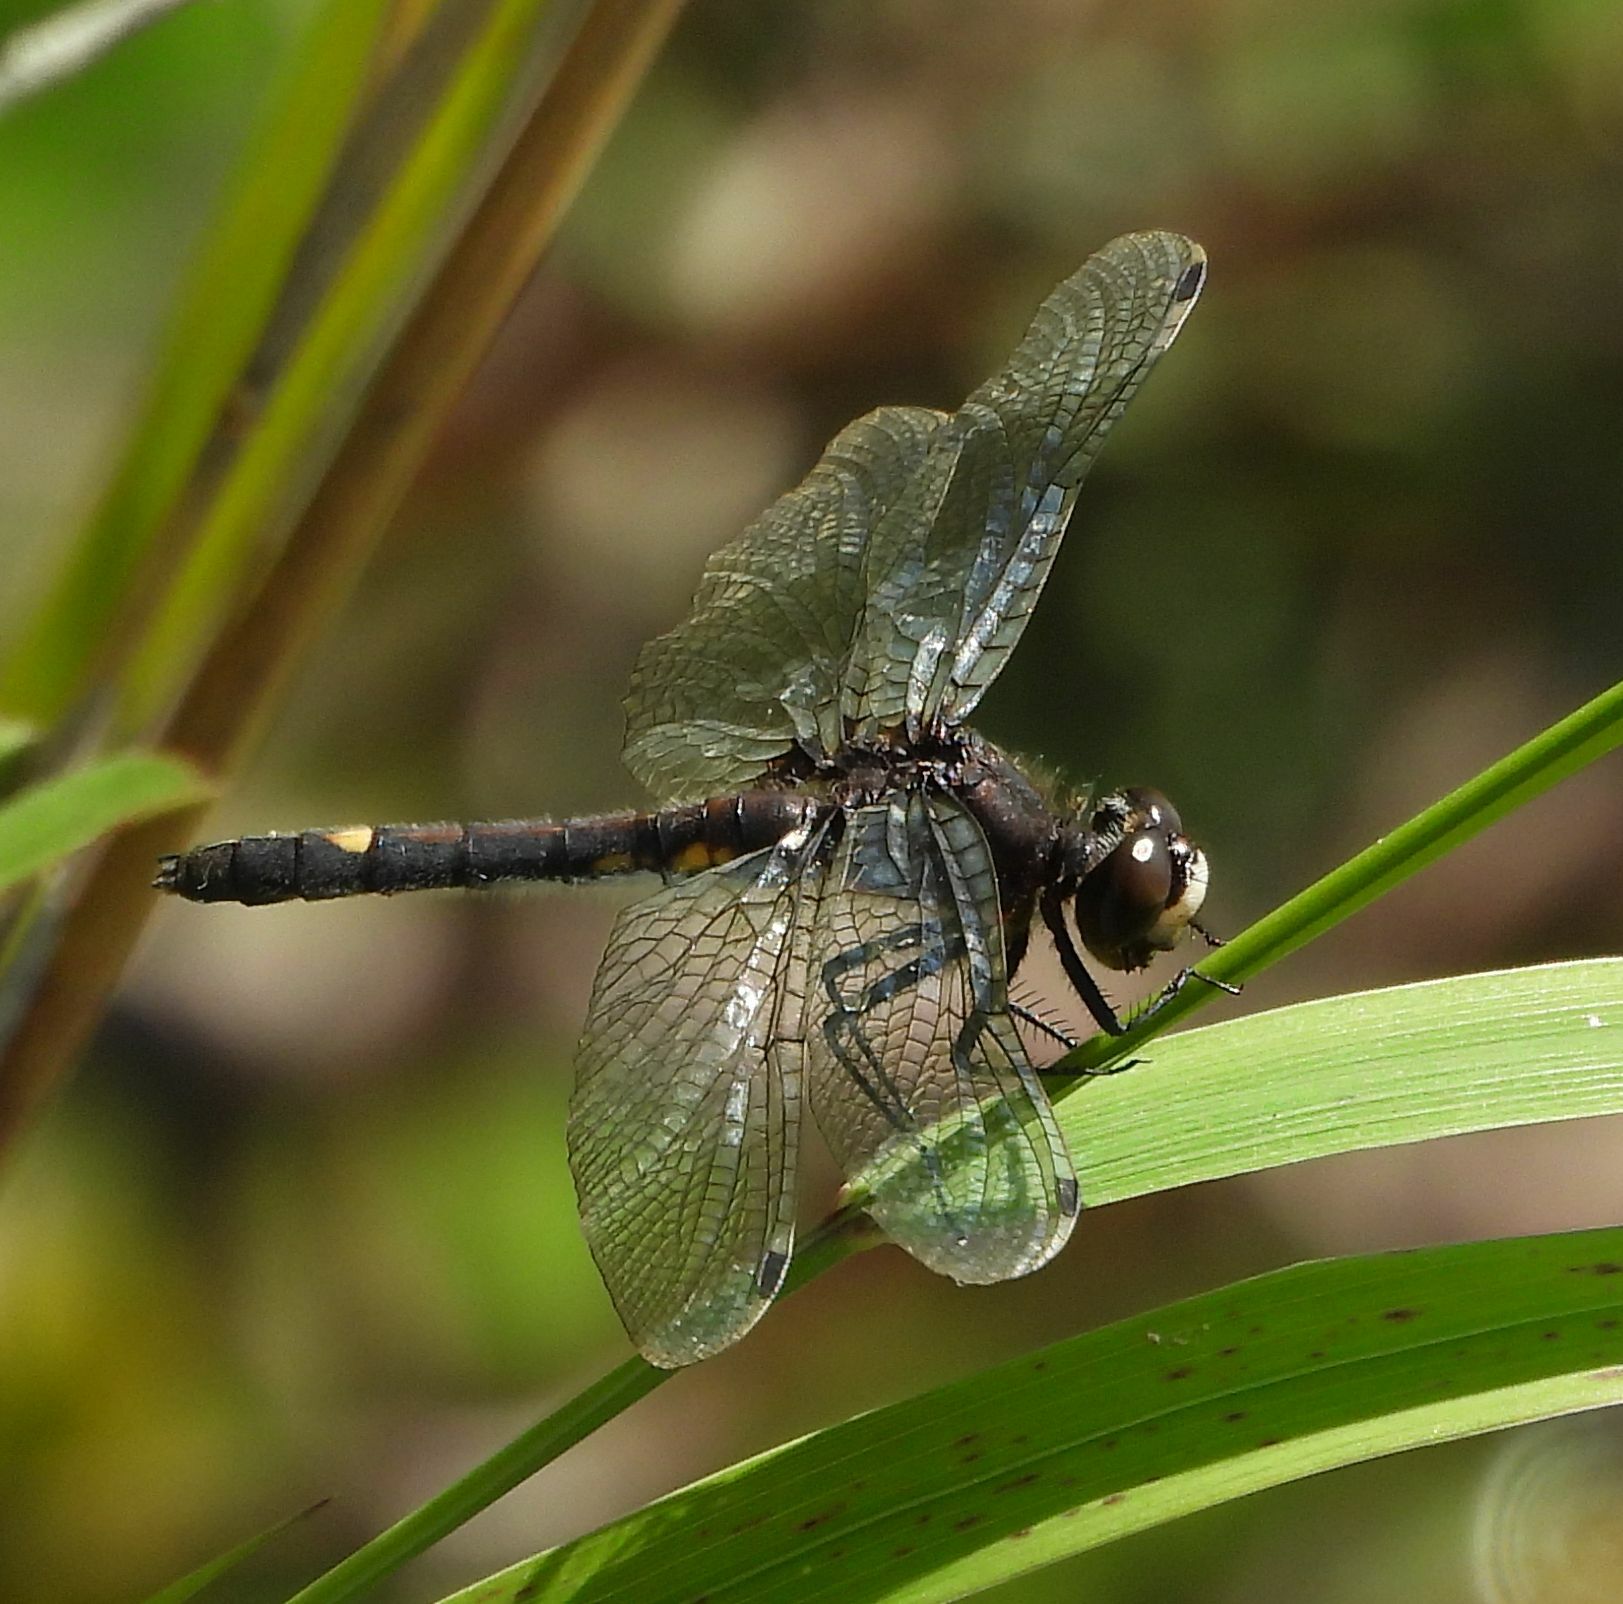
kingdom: Animalia
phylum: Arthropoda
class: Insecta
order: Odonata
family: Libellulidae
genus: Leucorrhinia
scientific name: Leucorrhinia intacta
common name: Dot-tailed whiteface
